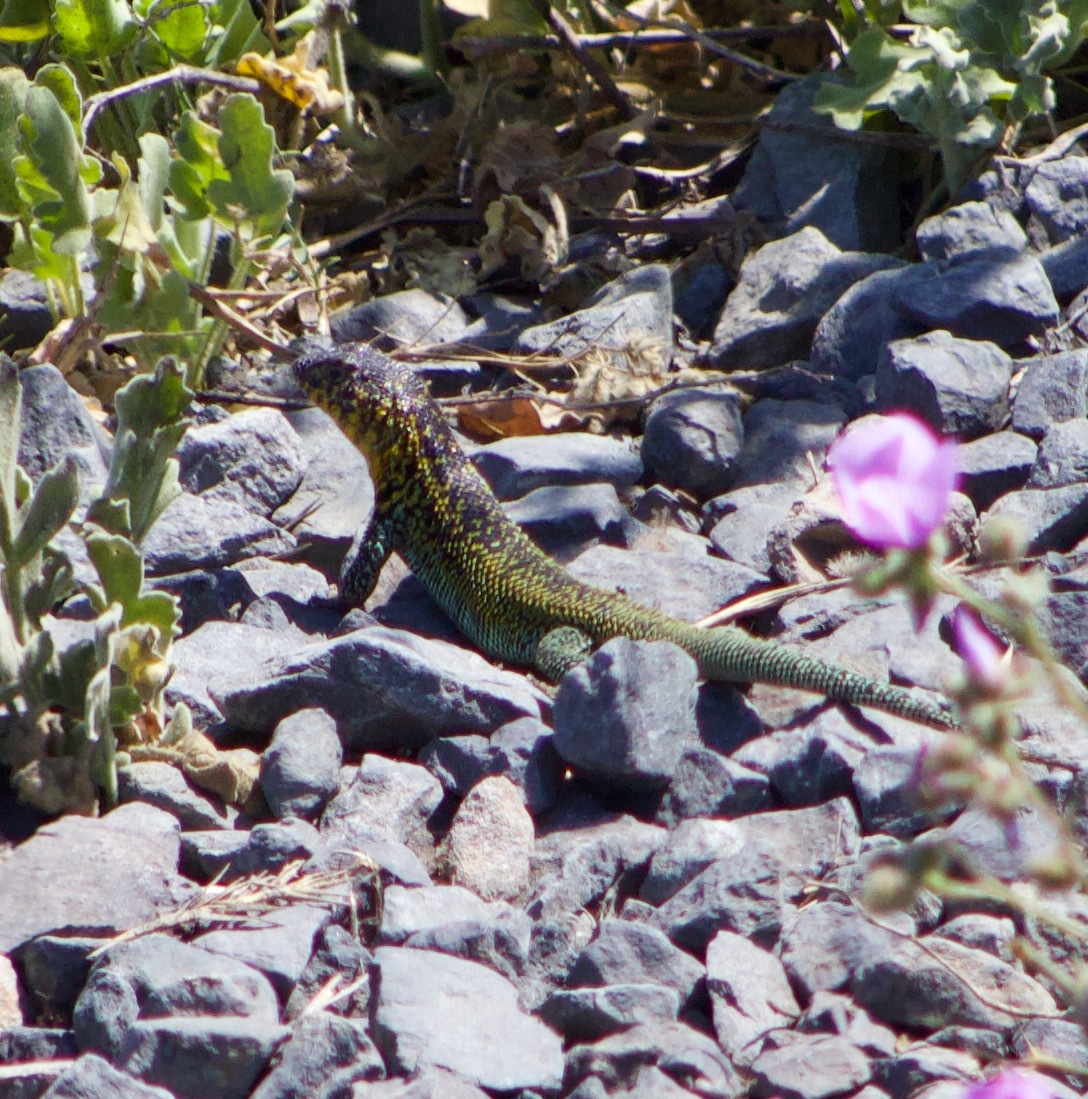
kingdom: Animalia
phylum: Chordata
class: Squamata
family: Liolaemidae
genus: Liolaemus
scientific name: Liolaemus zapallarensis
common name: Zapallaren tree iguana
